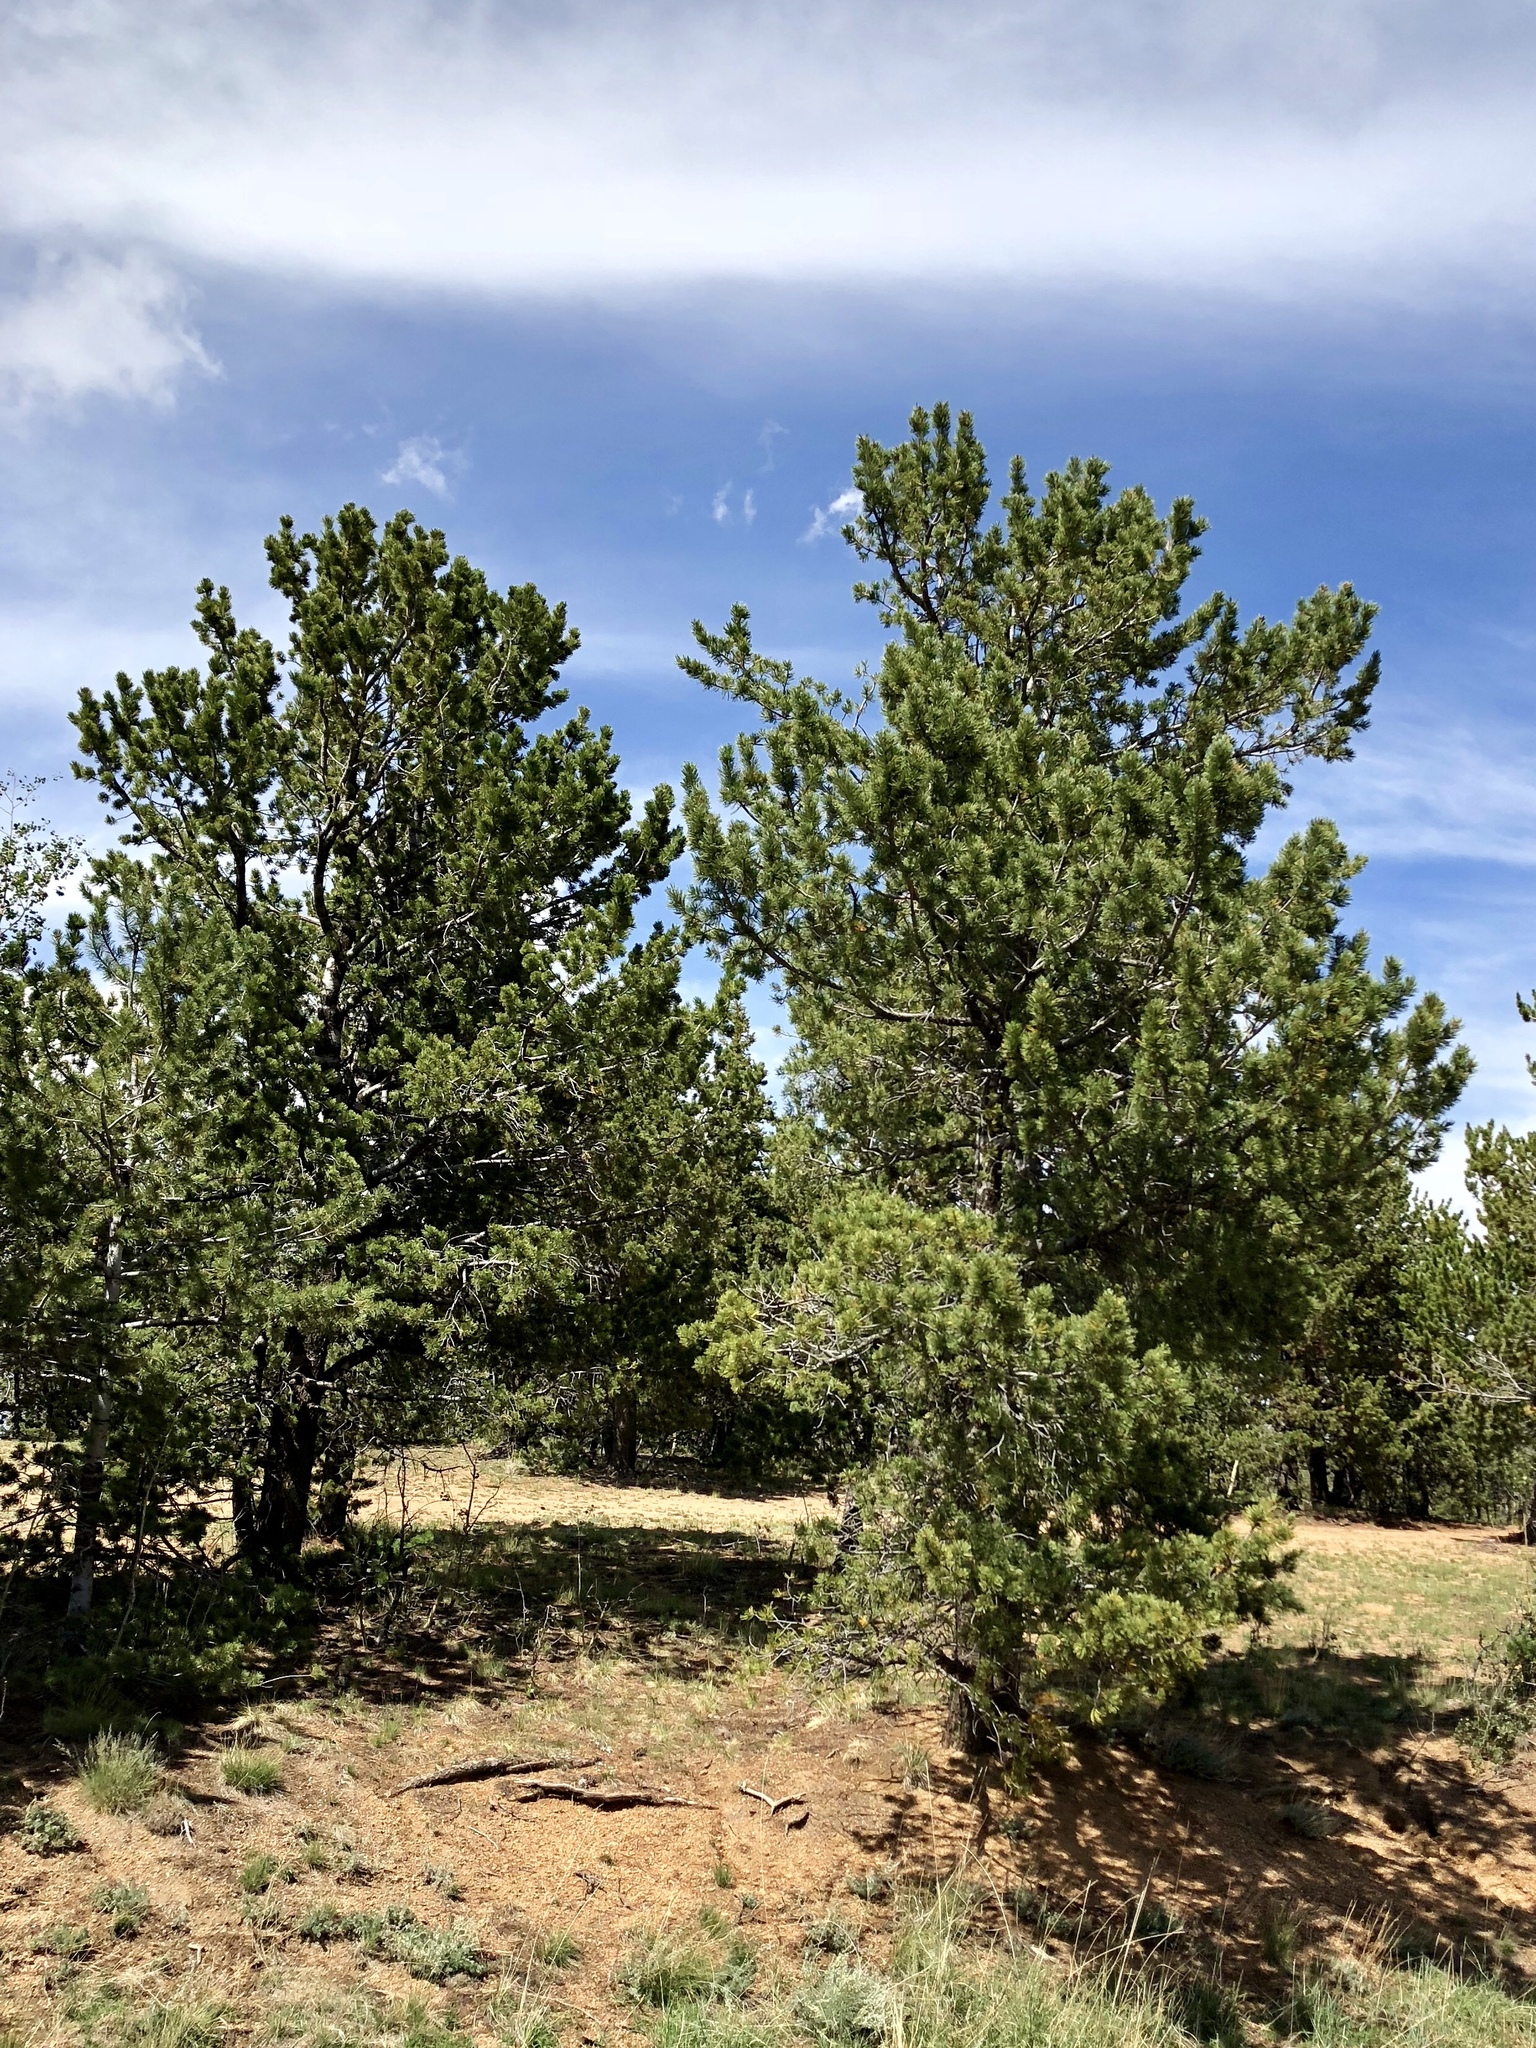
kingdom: Plantae
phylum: Tracheophyta
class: Pinopsida
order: Pinales
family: Pinaceae
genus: Pinus
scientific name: Pinus flexilis
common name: Limber pine
